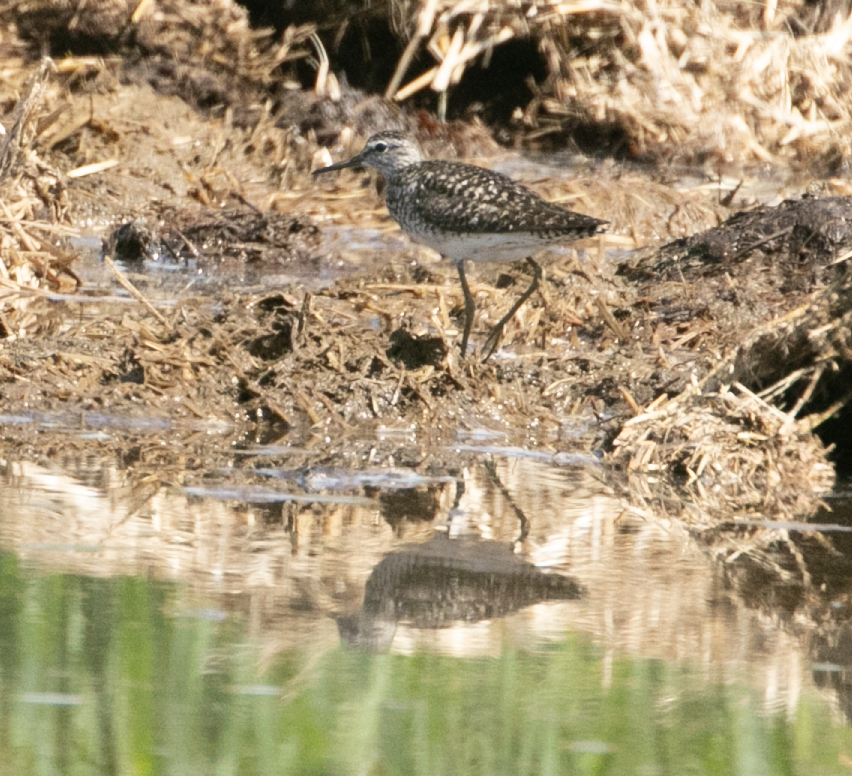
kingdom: Animalia
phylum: Chordata
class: Aves
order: Charadriiformes
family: Scolopacidae
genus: Tringa
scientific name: Tringa glareola
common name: Wood sandpiper
